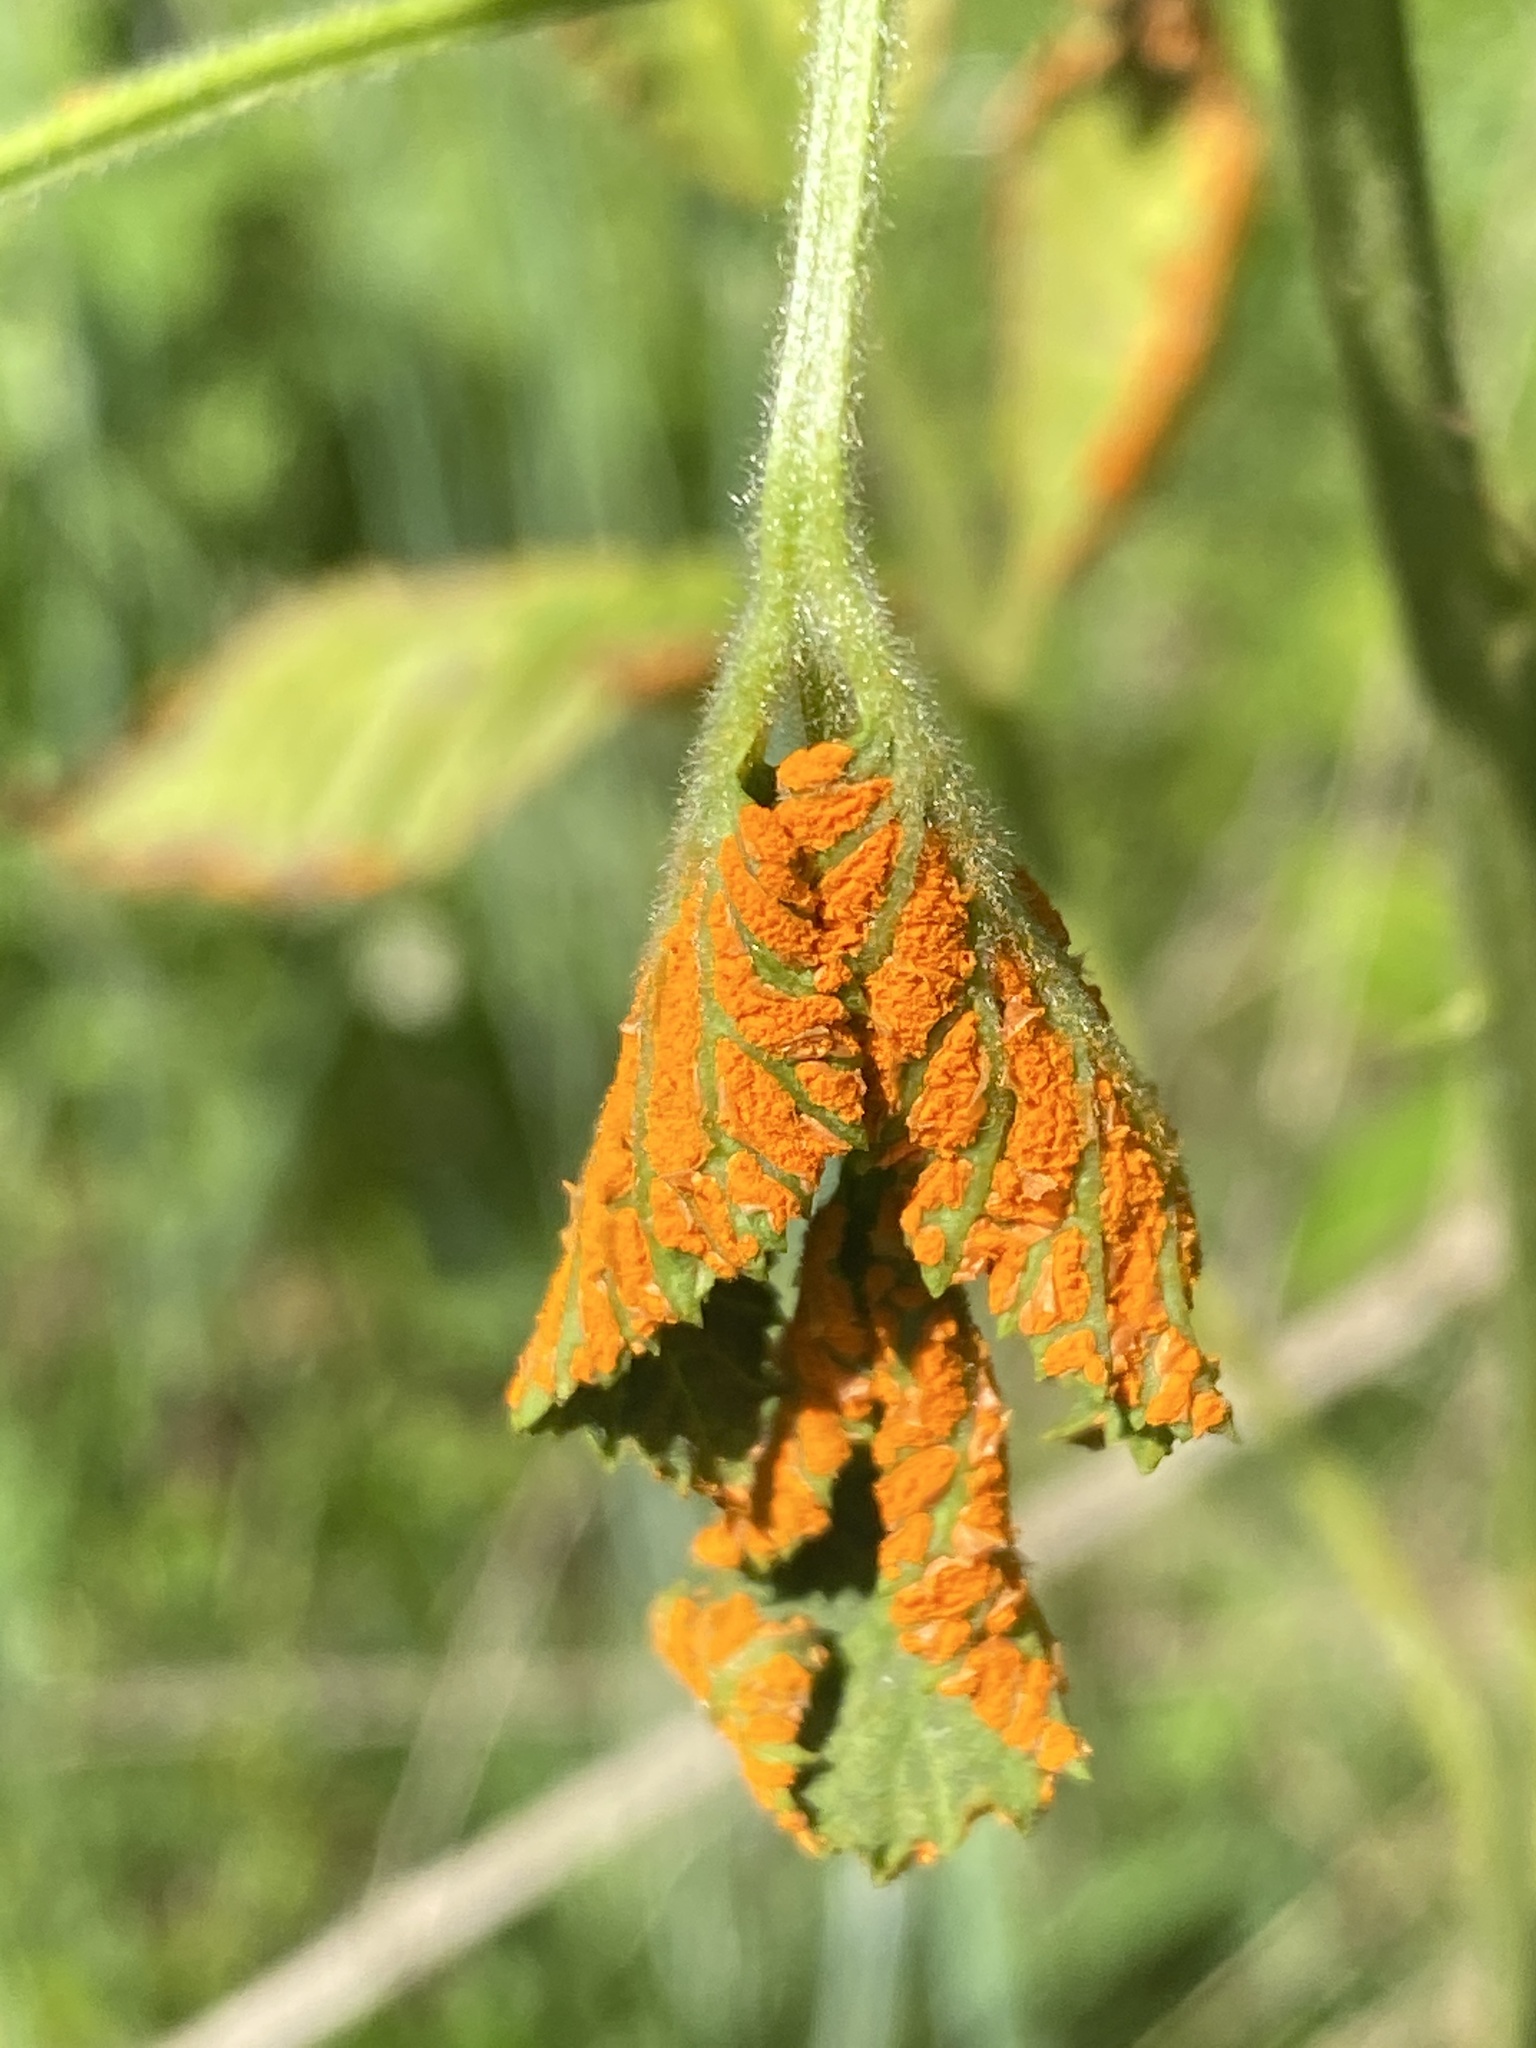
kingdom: Fungi
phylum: Basidiomycota
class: Pucciniomycetes
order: Pucciniales
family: Phragmidiaceae
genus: Arthuriomyces
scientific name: Arthuriomyces peckianus
